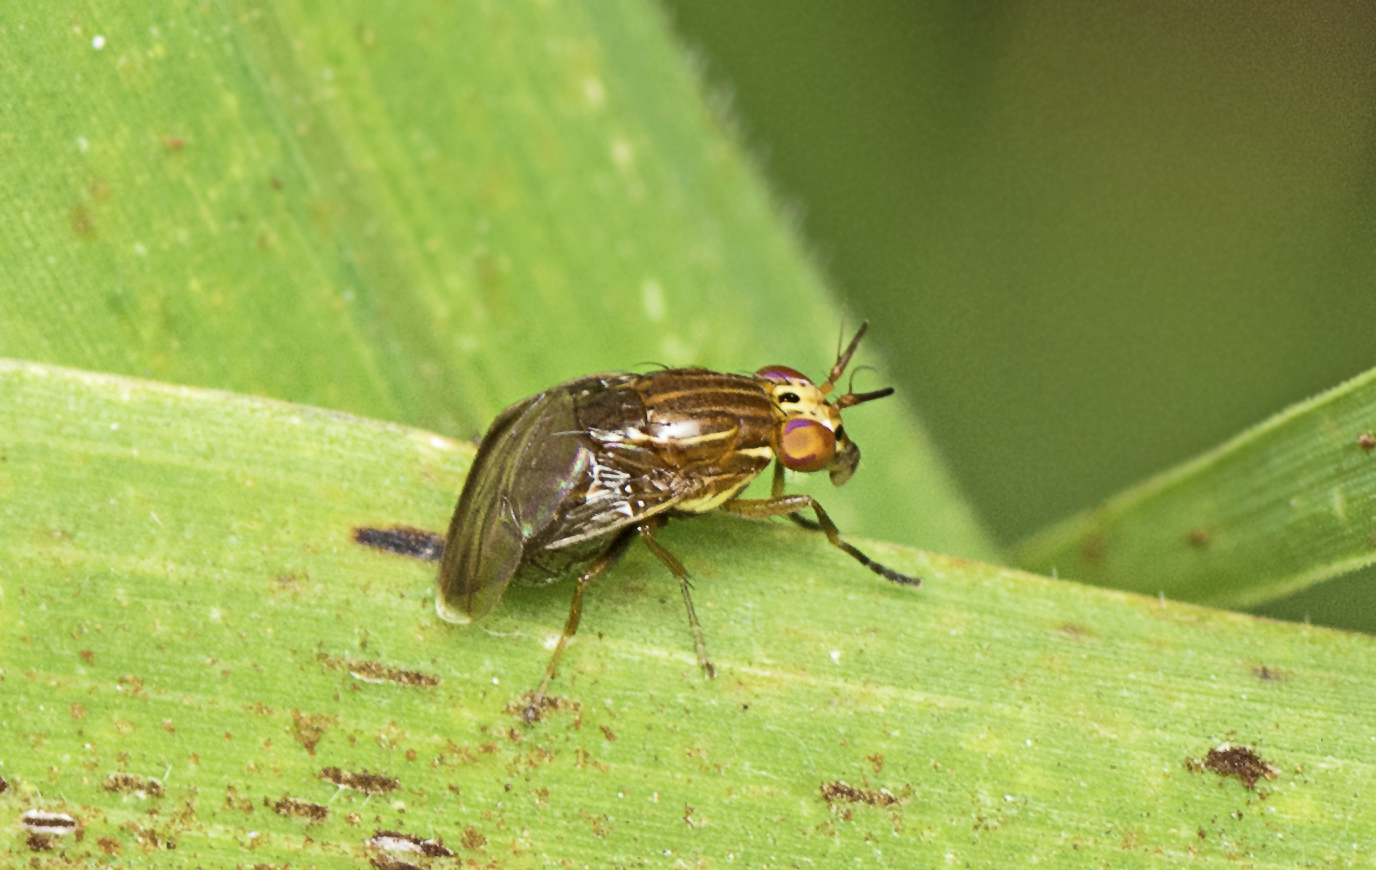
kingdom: Animalia
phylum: Arthropoda
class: Insecta
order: Diptera
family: Lauxaniidae
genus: Steganopsis
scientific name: Steganopsis melanogaster
